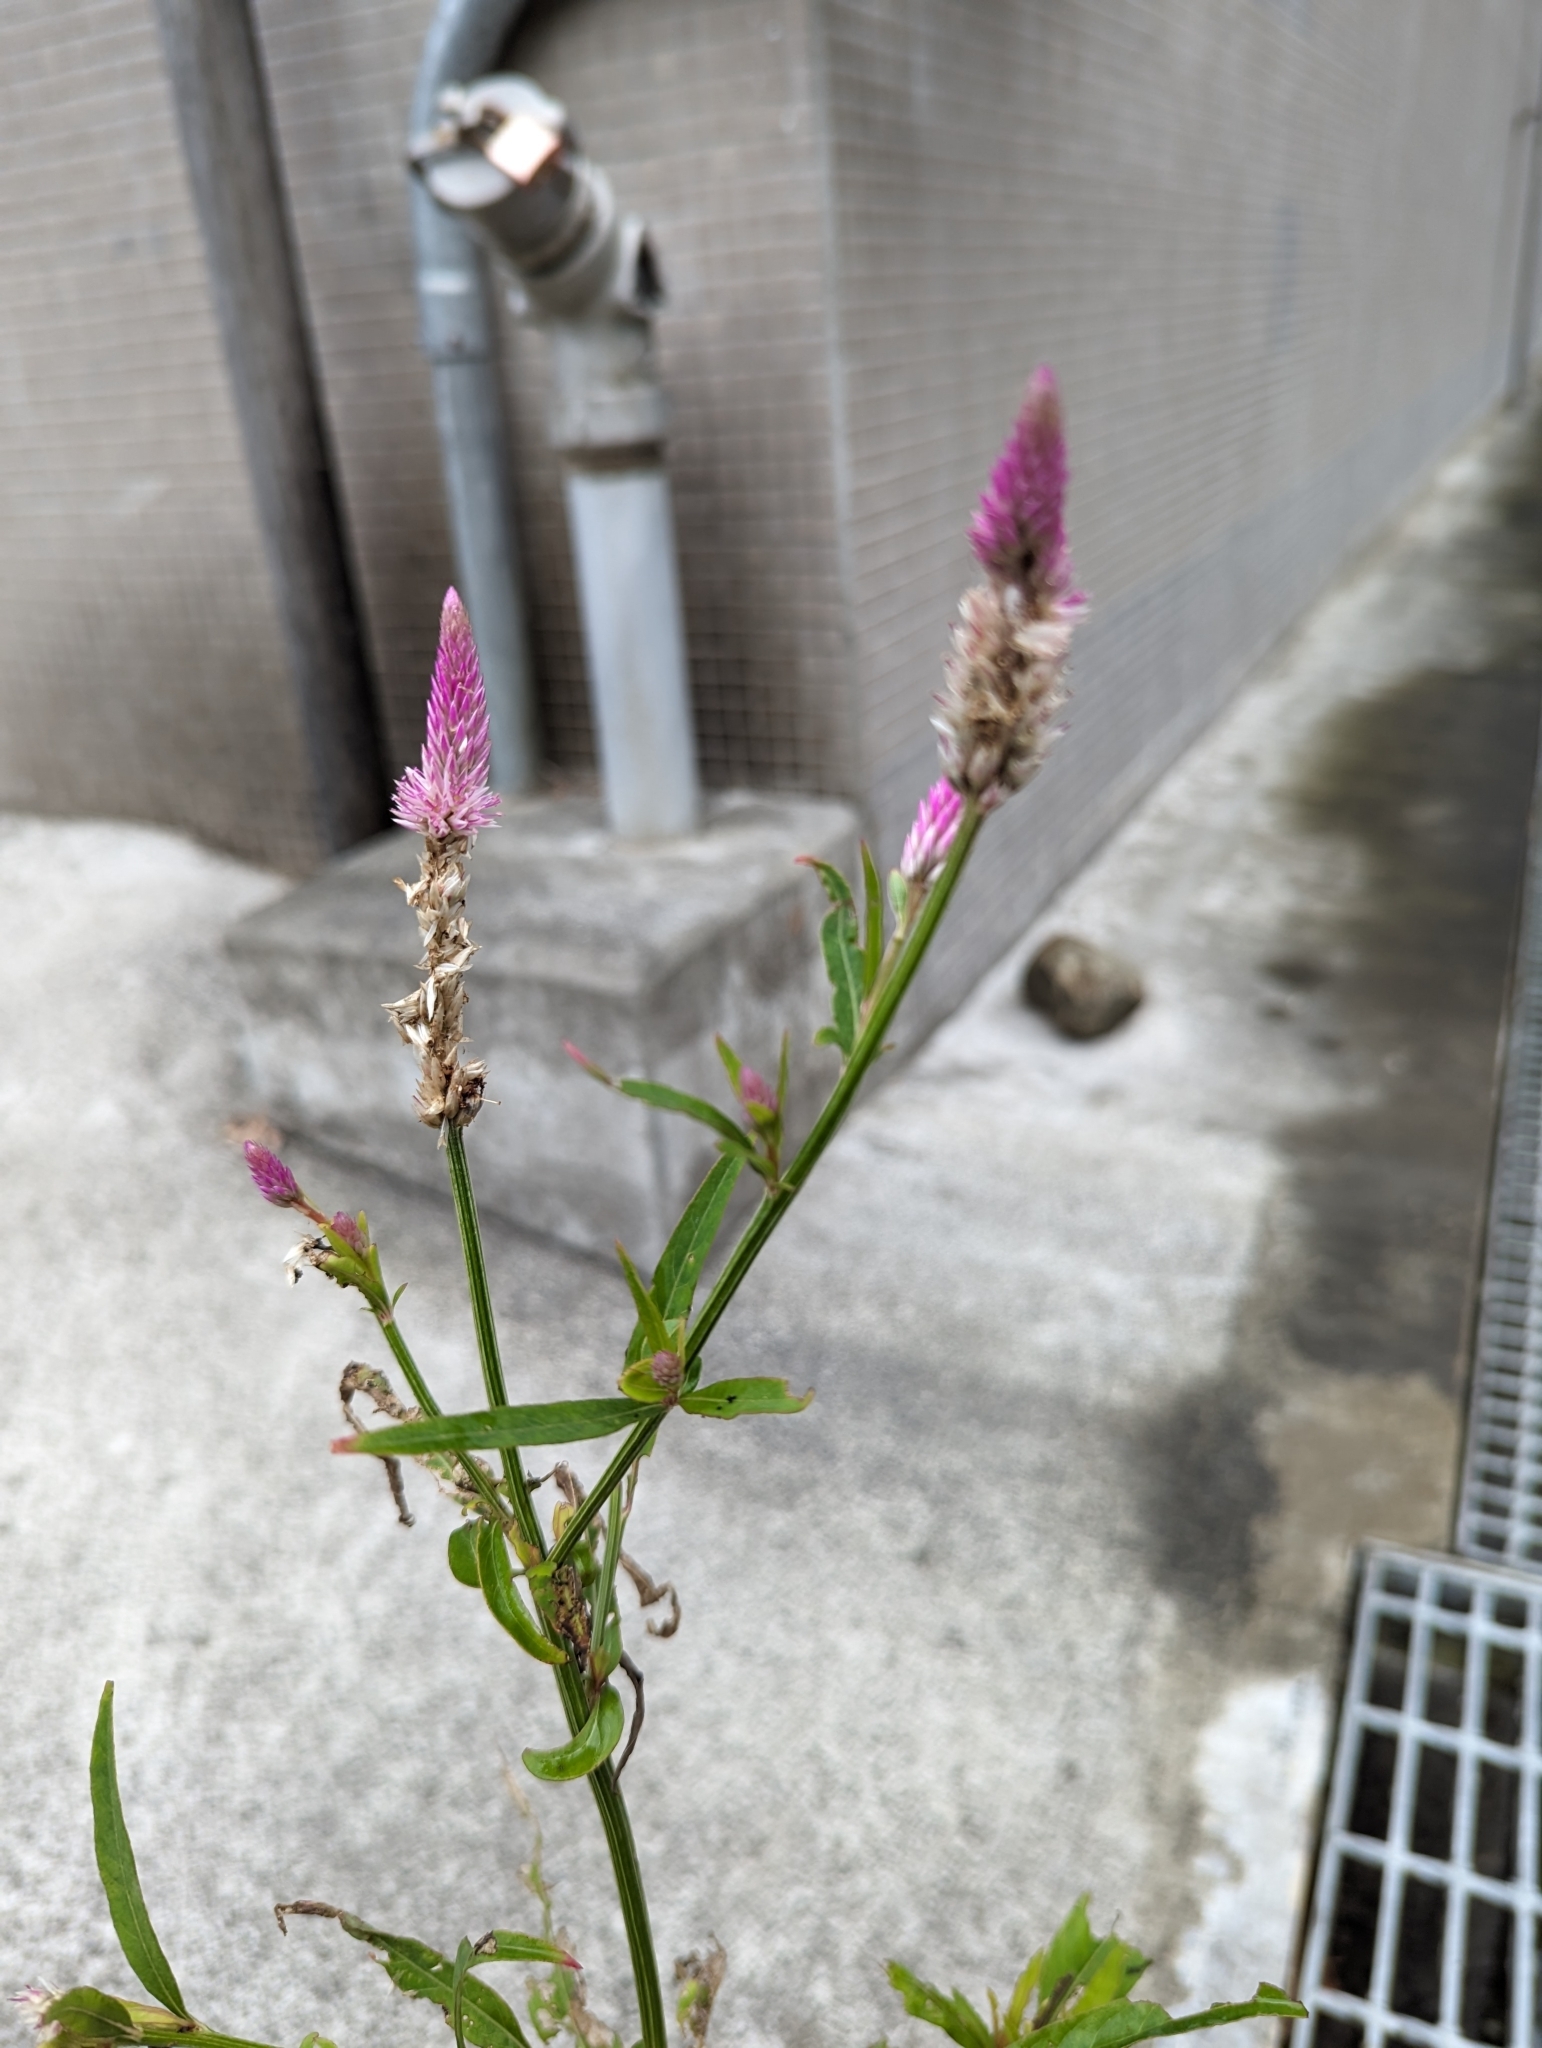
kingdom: Plantae
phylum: Tracheophyta
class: Magnoliopsida
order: Caryophyllales
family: Amaranthaceae
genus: Celosia
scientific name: Celosia argentea
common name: Feather cockscomb
